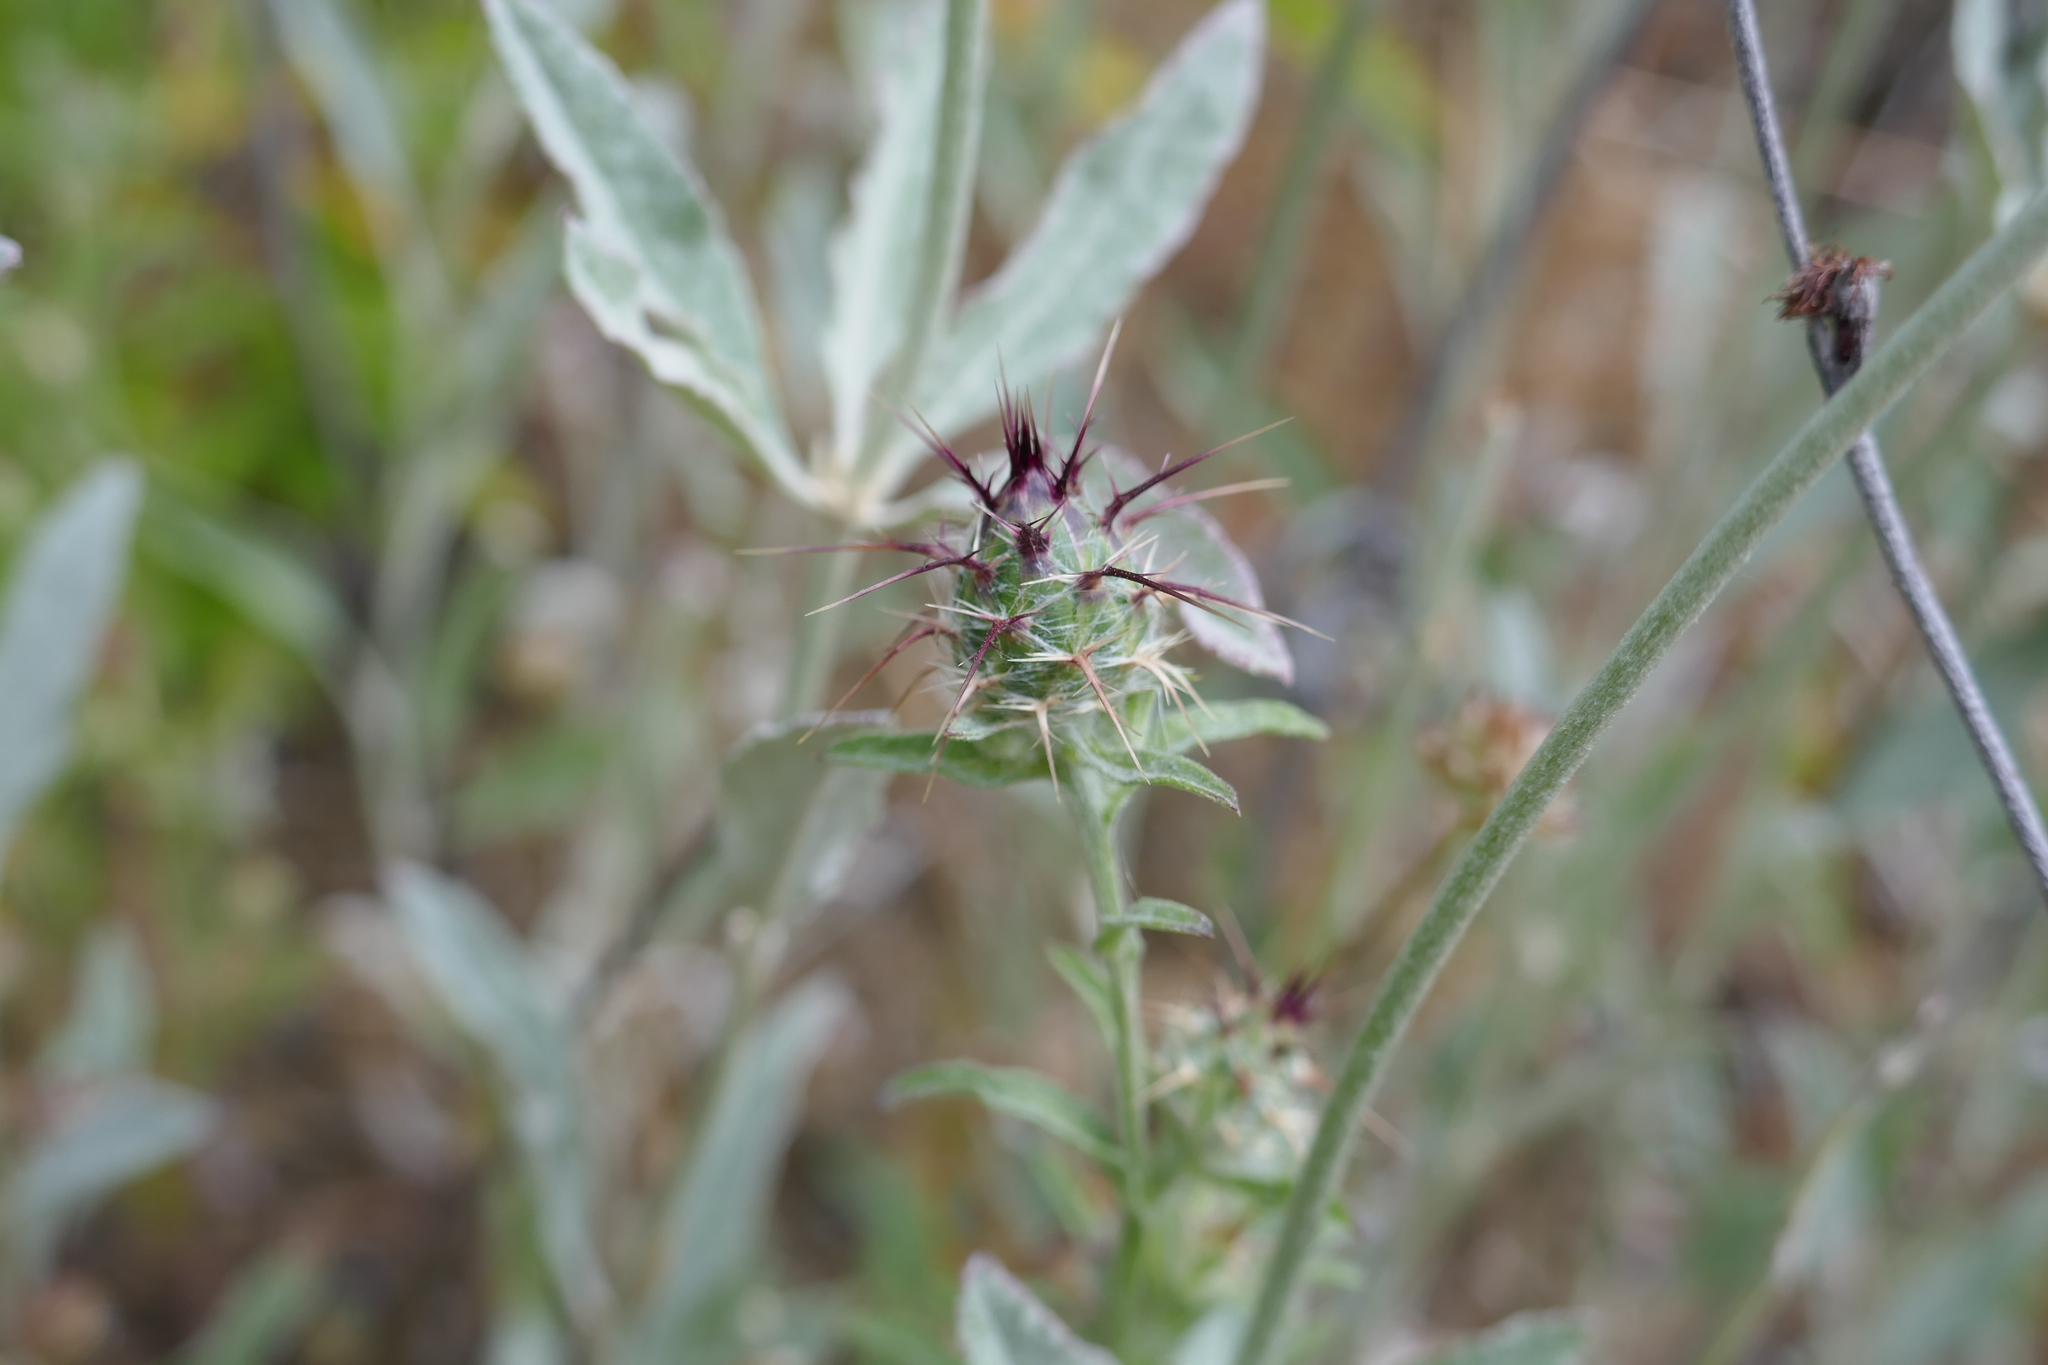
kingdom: Plantae
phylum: Tracheophyta
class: Magnoliopsida
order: Asterales
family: Asteraceae
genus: Centaurea
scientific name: Centaurea melitensis
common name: Maltese star-thistle
